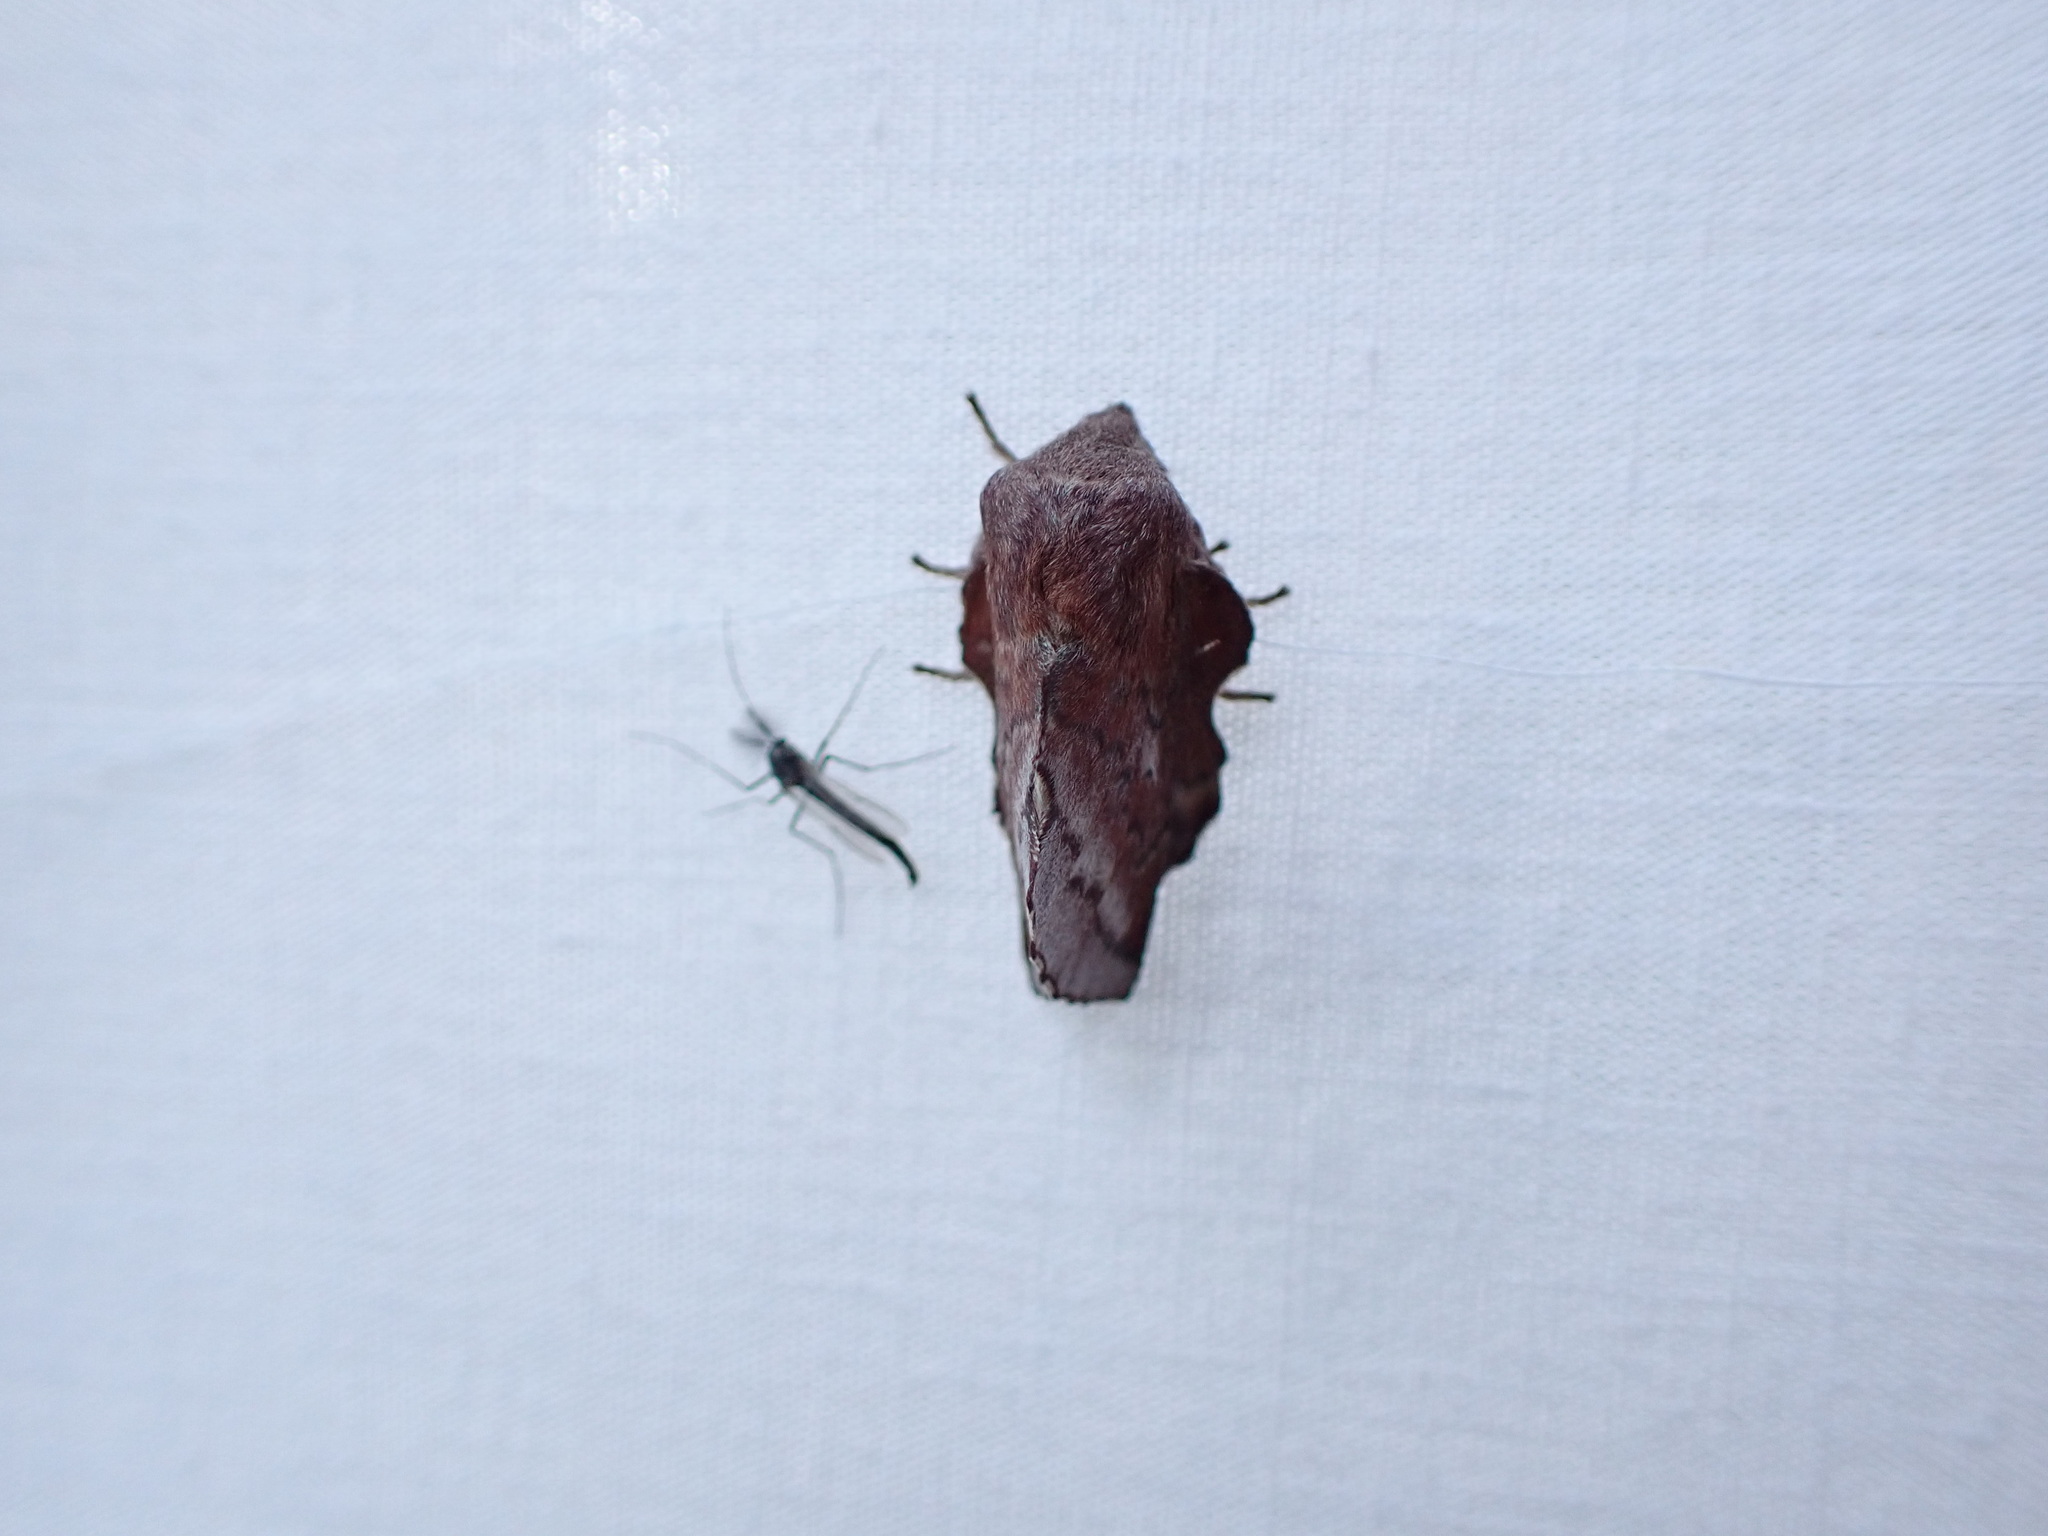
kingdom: Animalia
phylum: Arthropoda
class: Insecta
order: Lepidoptera
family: Lasiocampidae
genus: Phyllodesma
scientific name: Phyllodesma americana
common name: American lappet moth
